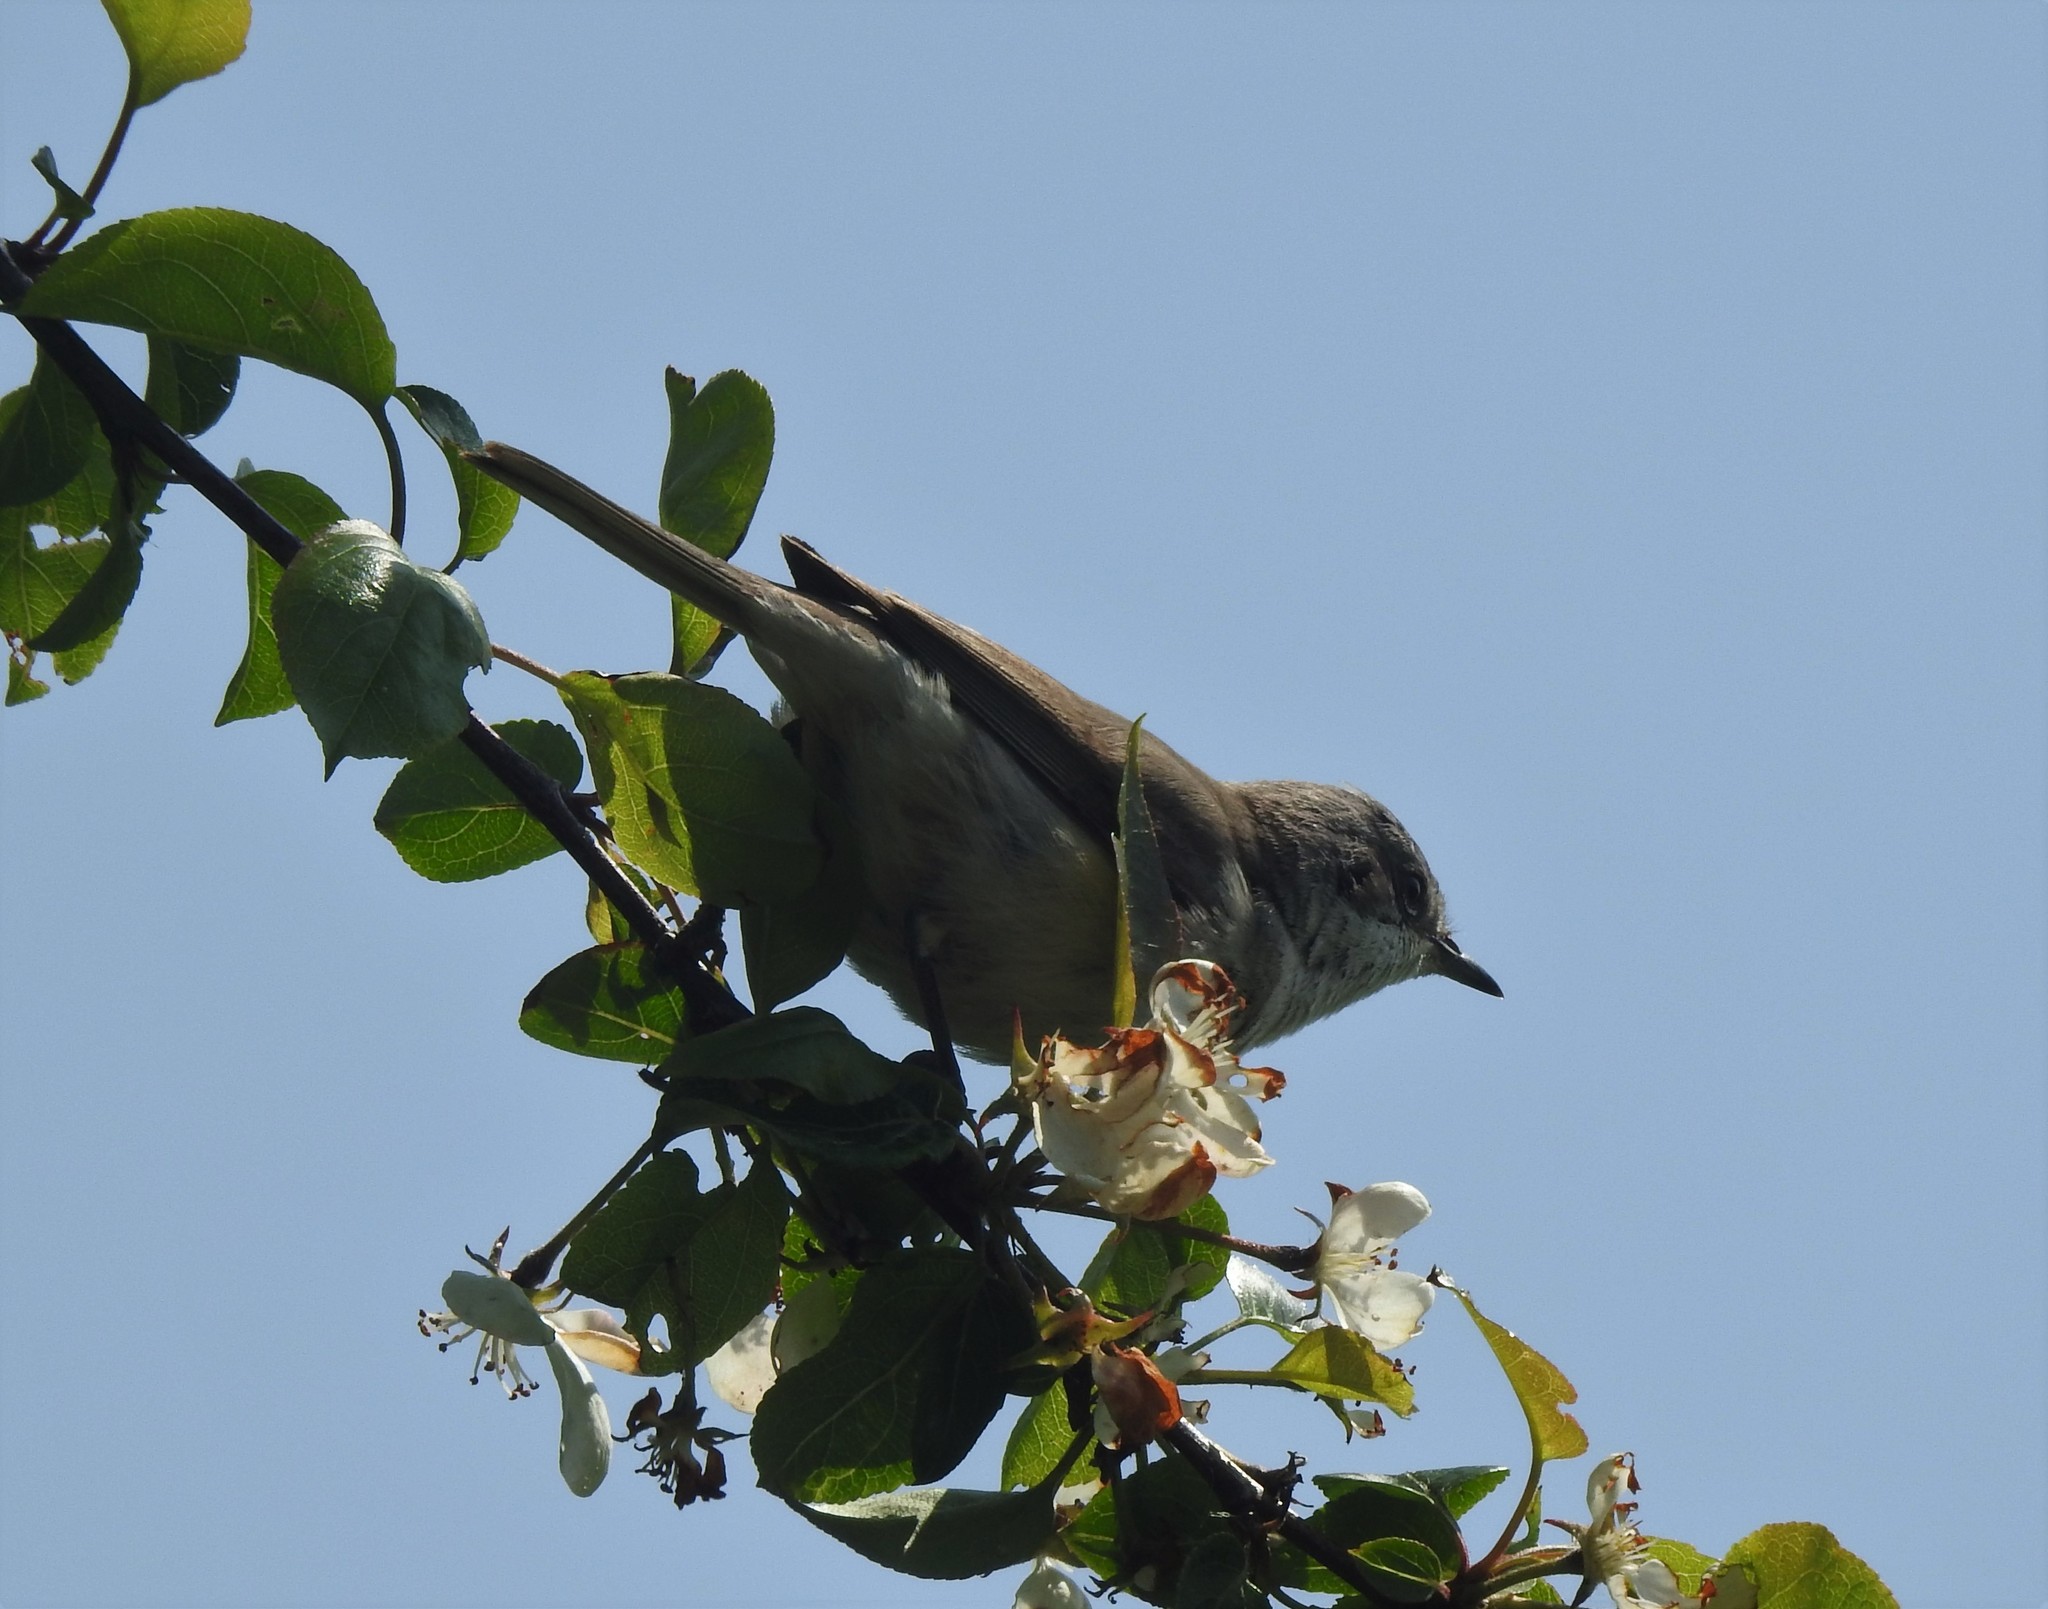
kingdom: Animalia
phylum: Chordata
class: Aves
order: Passeriformes
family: Sylviidae
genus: Sylvia
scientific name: Sylvia curruca
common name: Lesser whitethroat
